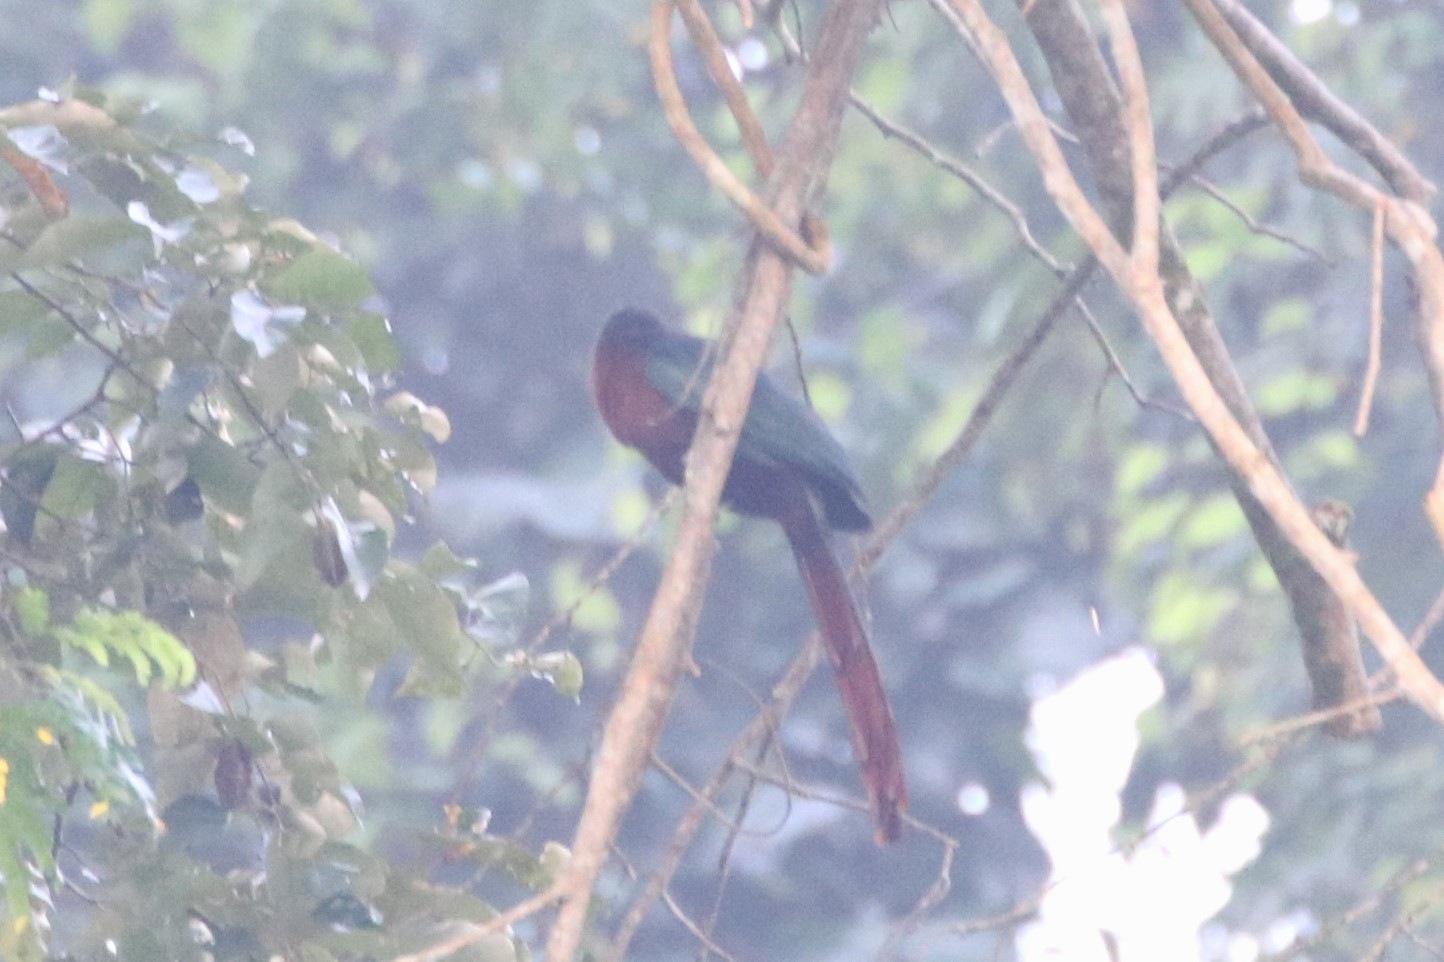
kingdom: Animalia
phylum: Chordata
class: Aves
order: Cuculiformes
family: Cuculidae
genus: Zanclostomus
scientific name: Zanclostomus curvirostris
